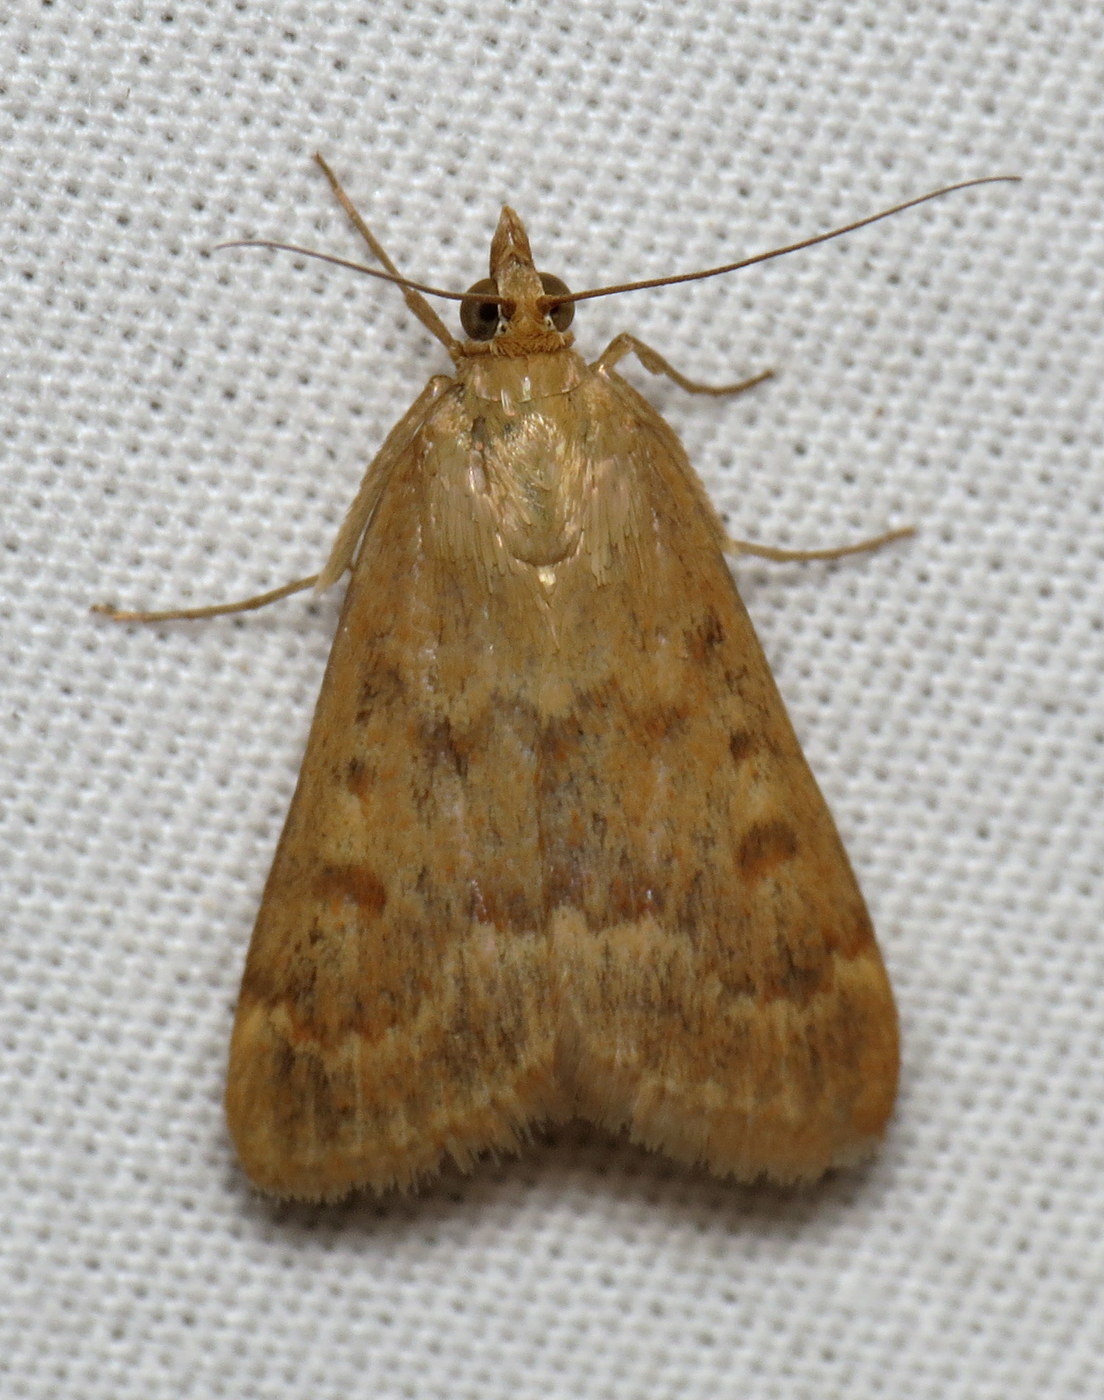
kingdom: Animalia
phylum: Arthropoda
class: Insecta
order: Lepidoptera
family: Crambidae
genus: Achyra
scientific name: Achyra rantalis
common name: Garden webworm
